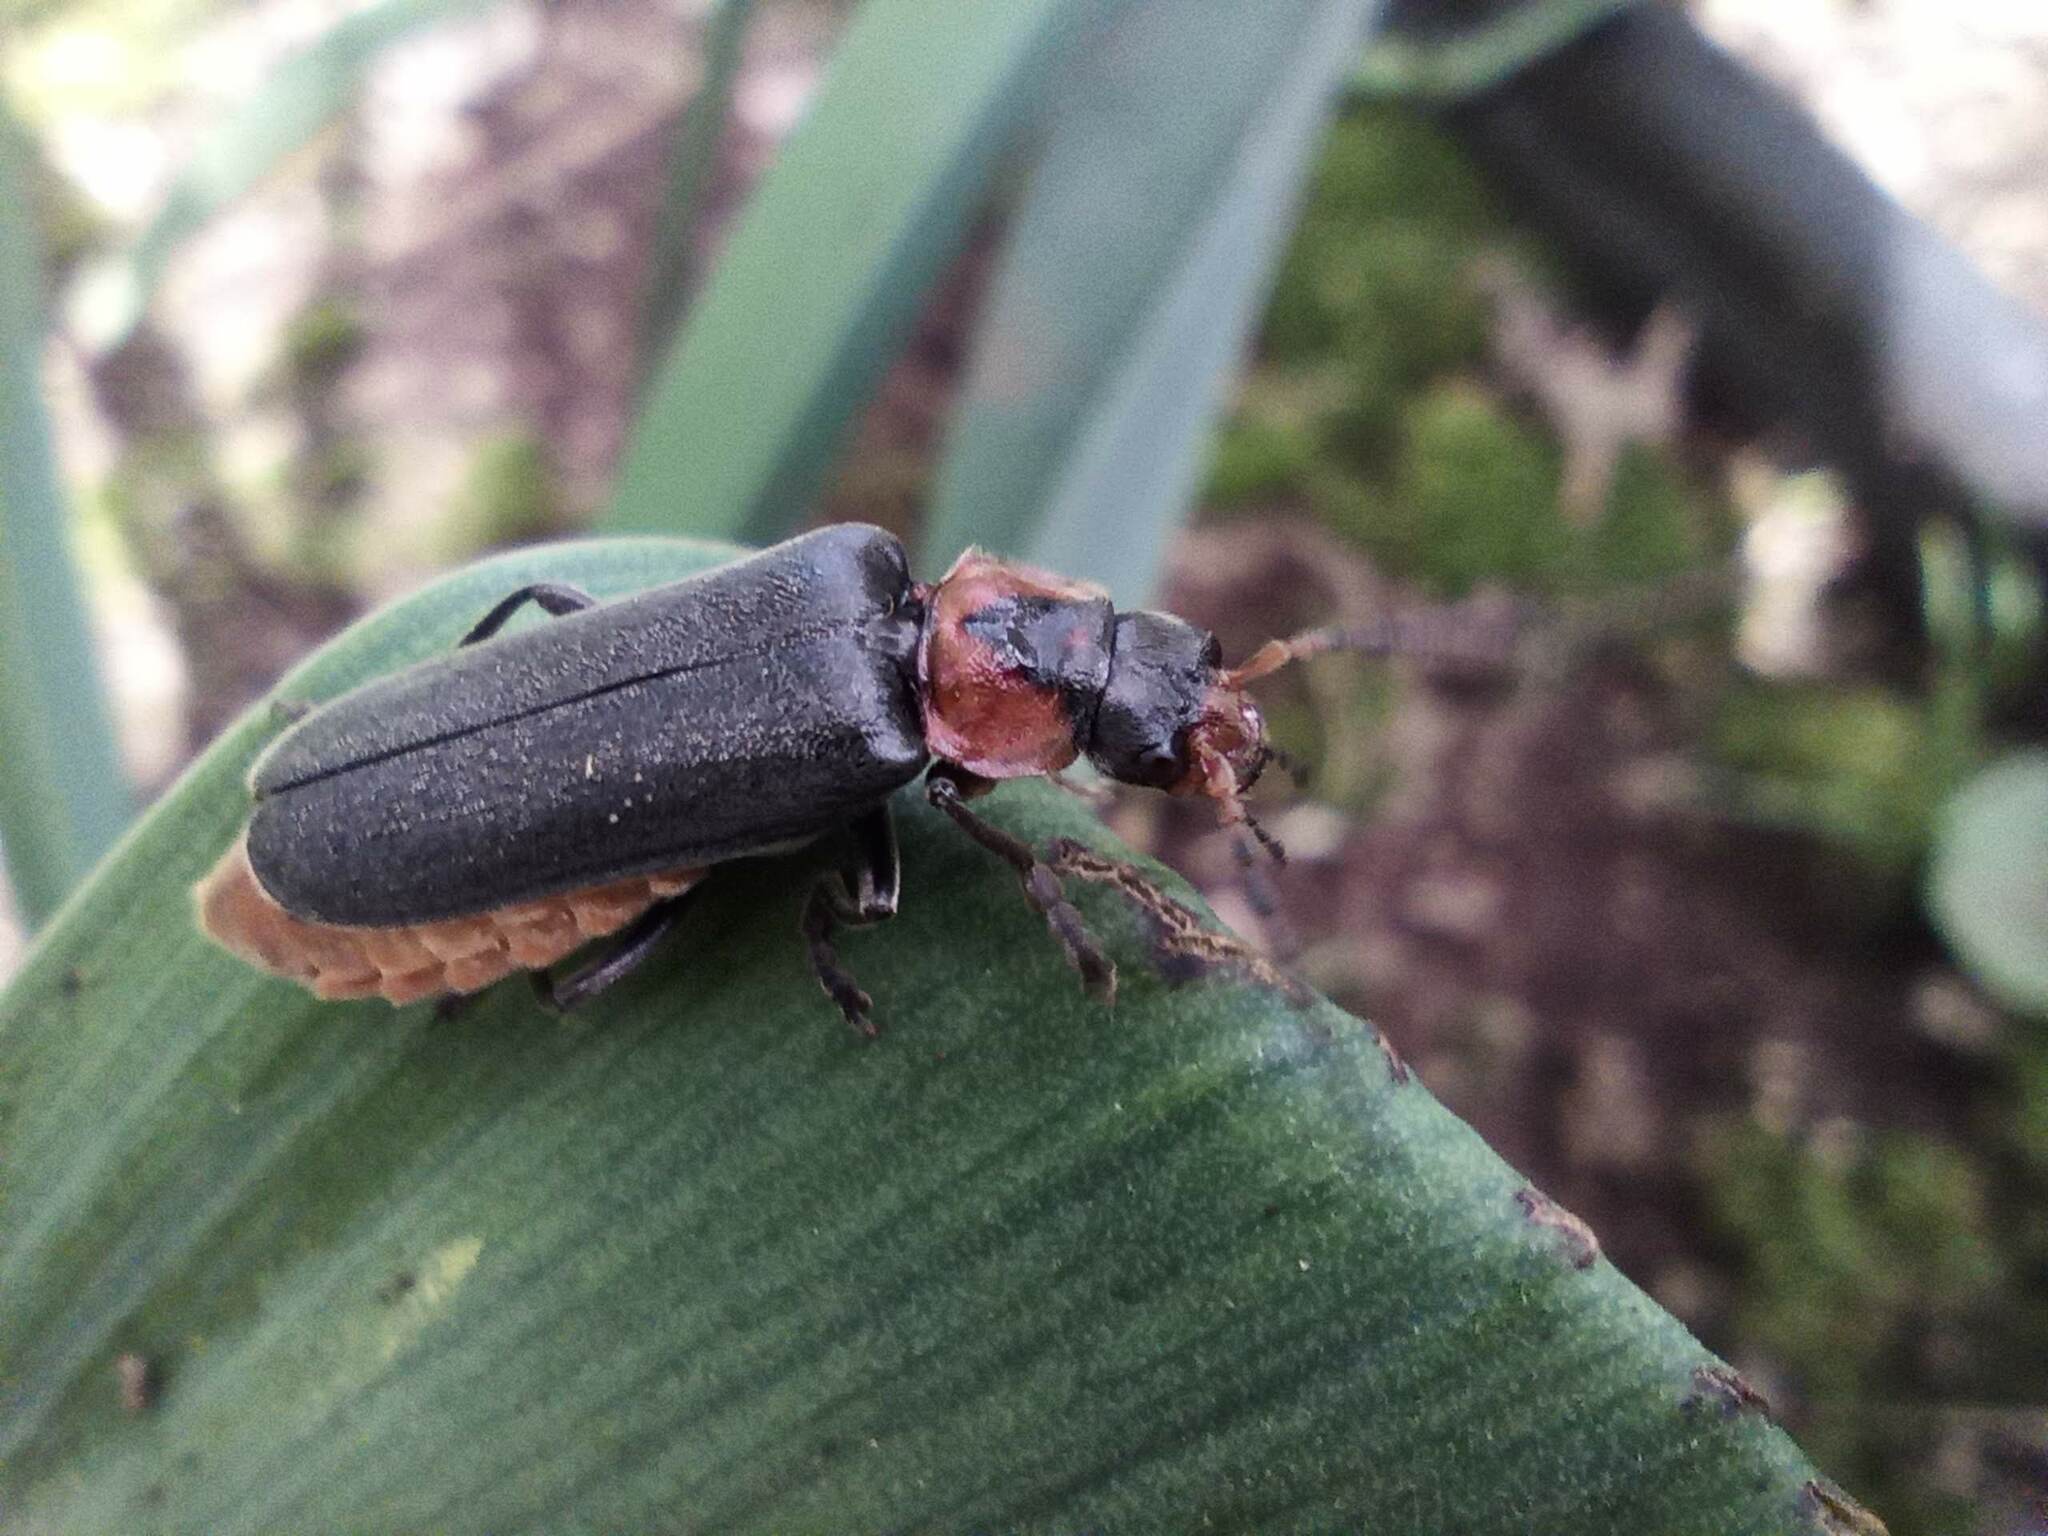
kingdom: Animalia
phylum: Arthropoda
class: Insecta
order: Coleoptera
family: Cantharidae
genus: Cantharis
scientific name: Cantharis reichei
